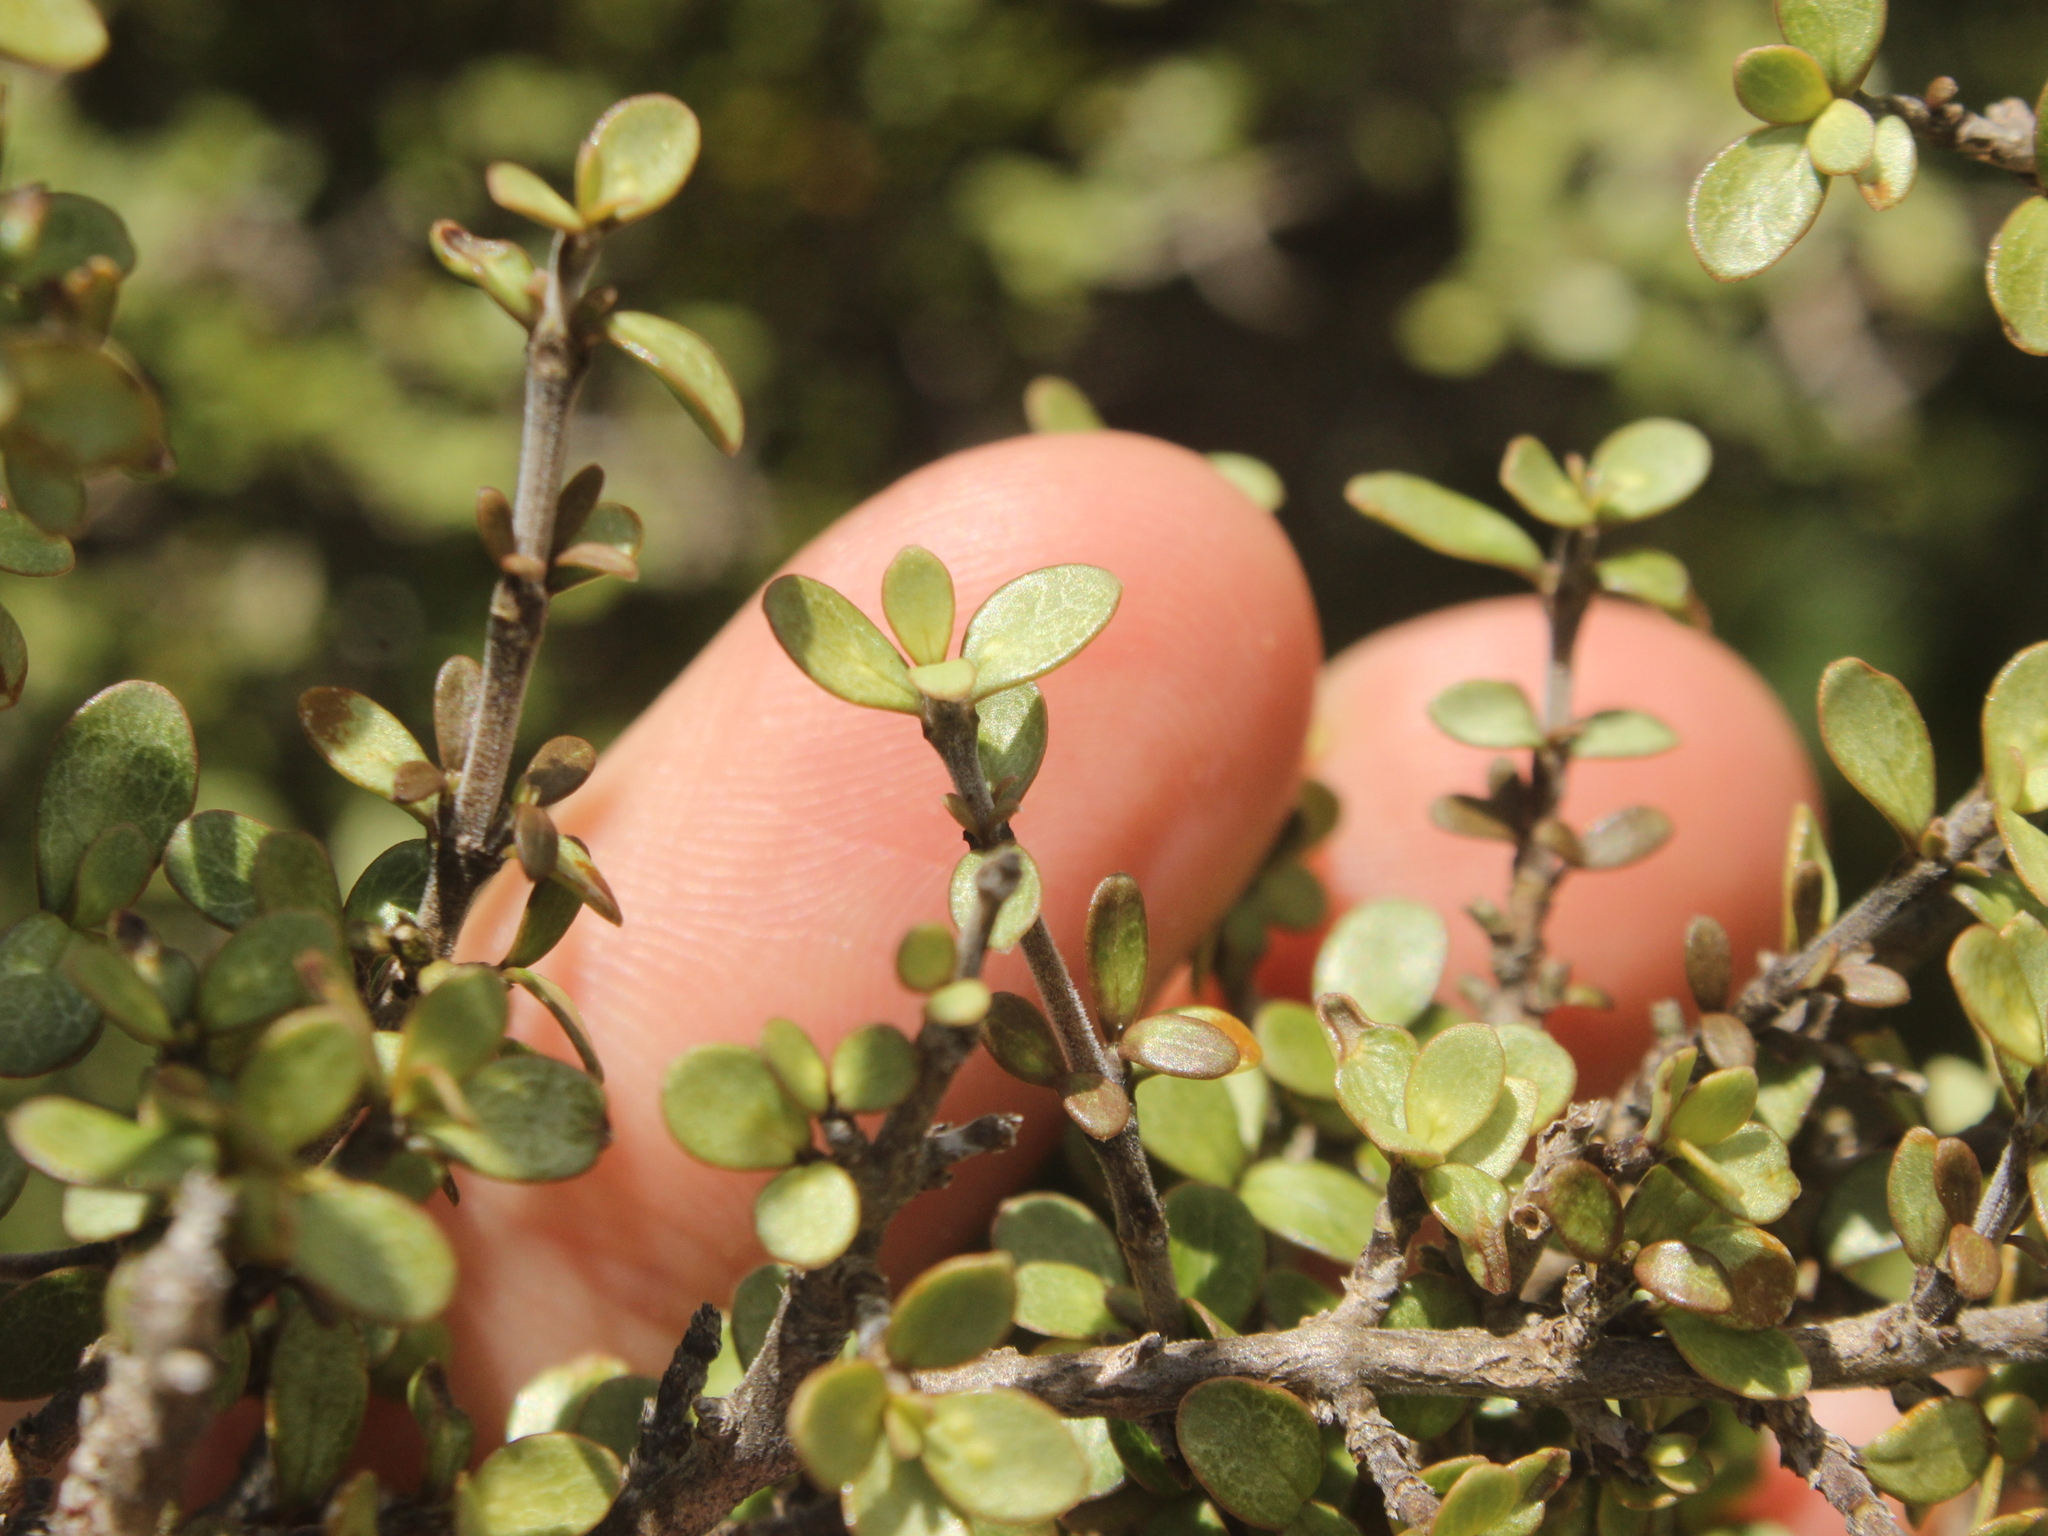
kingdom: Plantae
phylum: Tracheophyta
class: Magnoliopsida
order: Gentianales
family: Rubiaceae
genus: Coprosma
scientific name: Coprosma dumosa
